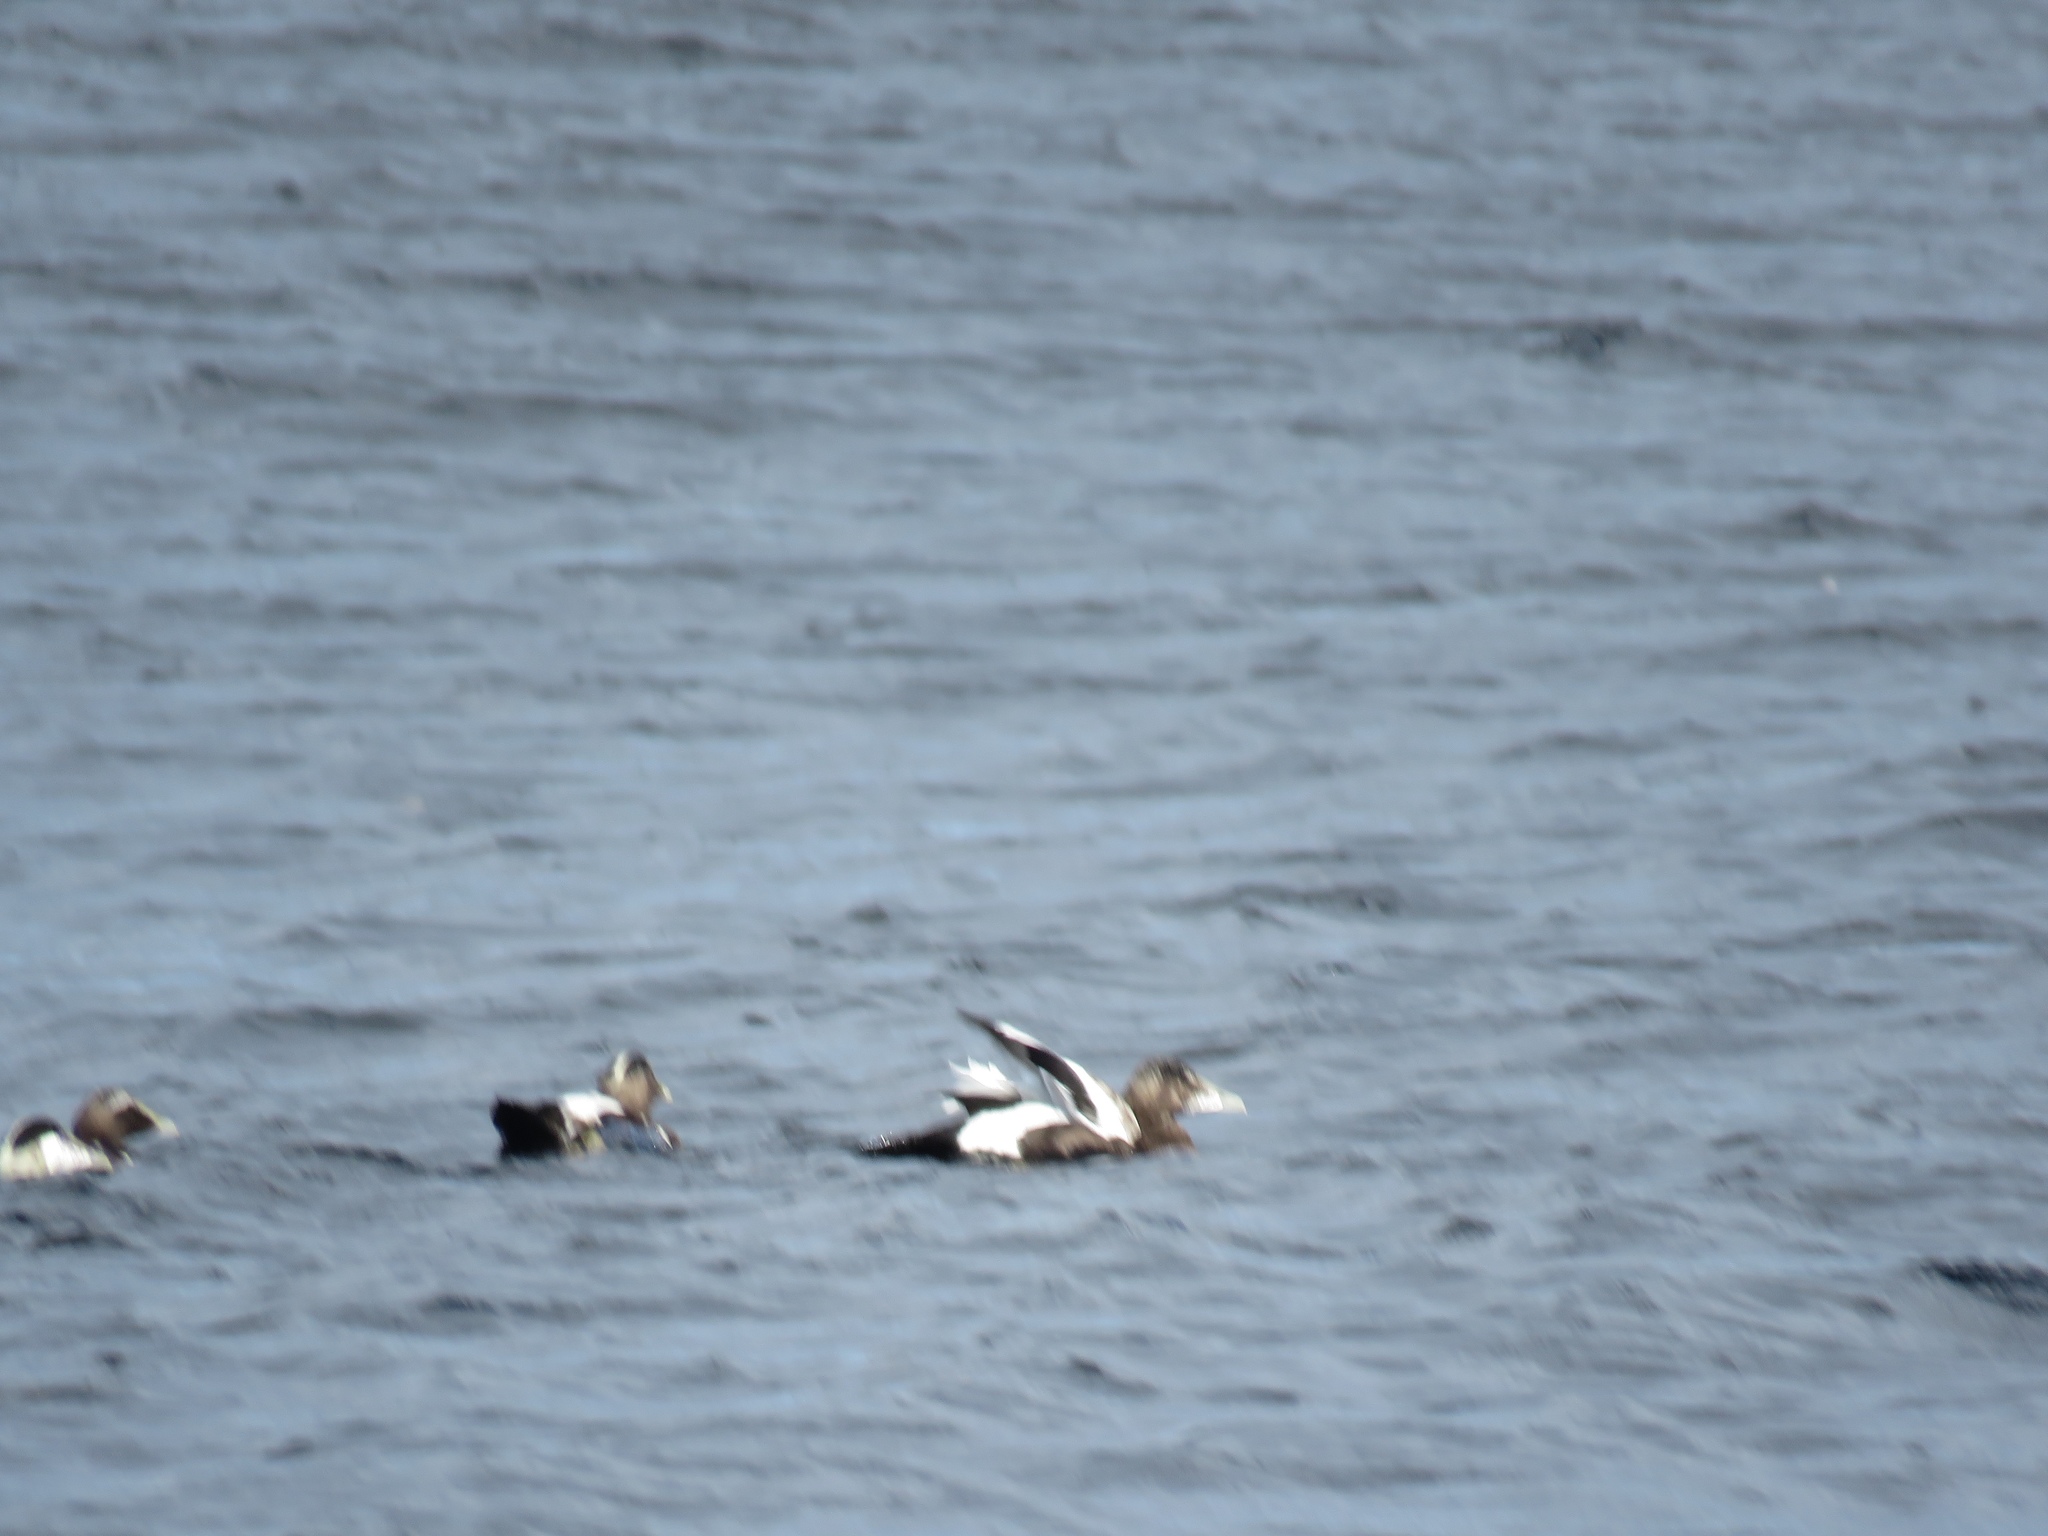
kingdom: Animalia
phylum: Chordata
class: Aves
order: Anseriformes
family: Anatidae
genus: Somateria
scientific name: Somateria mollissima
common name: Common eider
